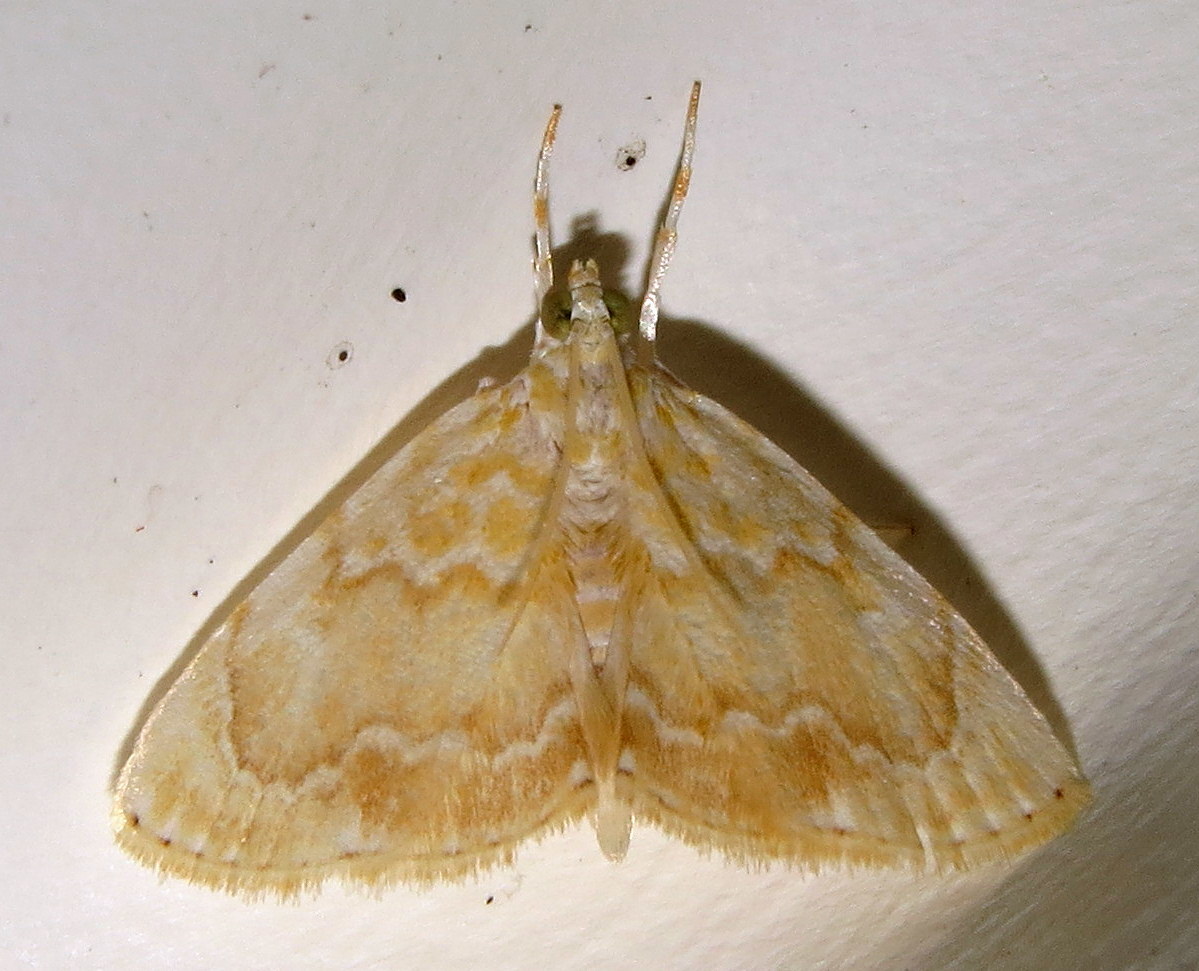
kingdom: Animalia
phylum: Arthropoda
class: Insecta
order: Lepidoptera
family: Crambidae
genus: Glaphyria
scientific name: Glaphyria glaphyralis
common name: Common glaphyria moth
